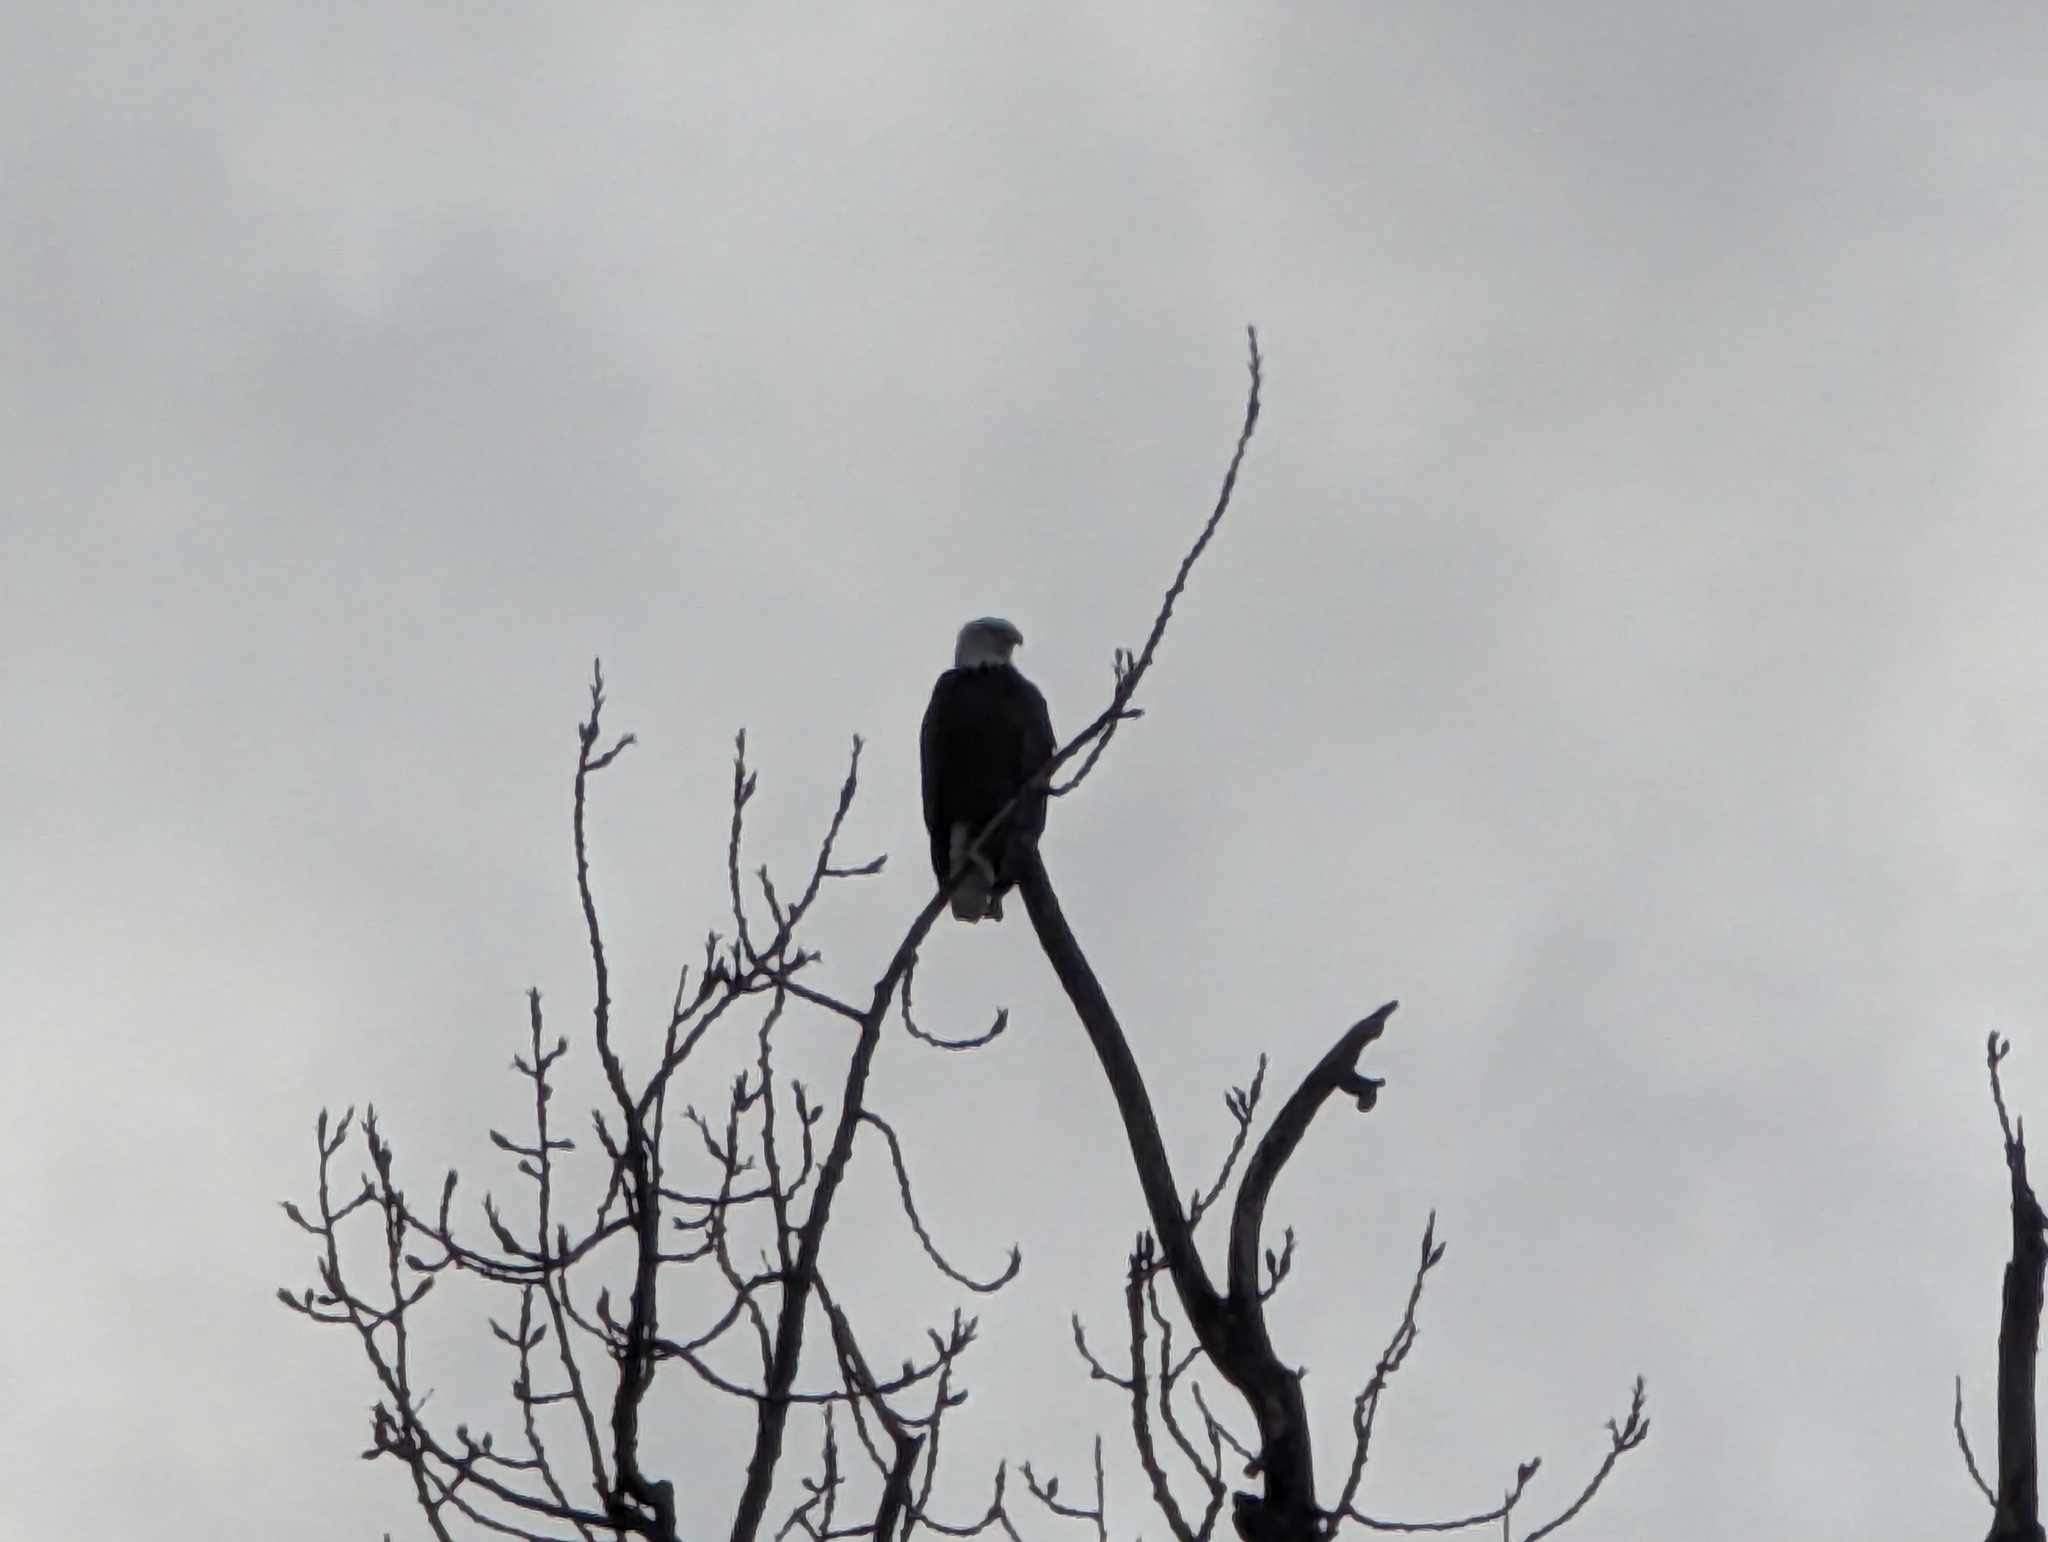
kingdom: Animalia
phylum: Chordata
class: Aves
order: Accipitriformes
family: Accipitridae
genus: Haliaeetus
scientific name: Haliaeetus leucocephalus
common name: Bald eagle
